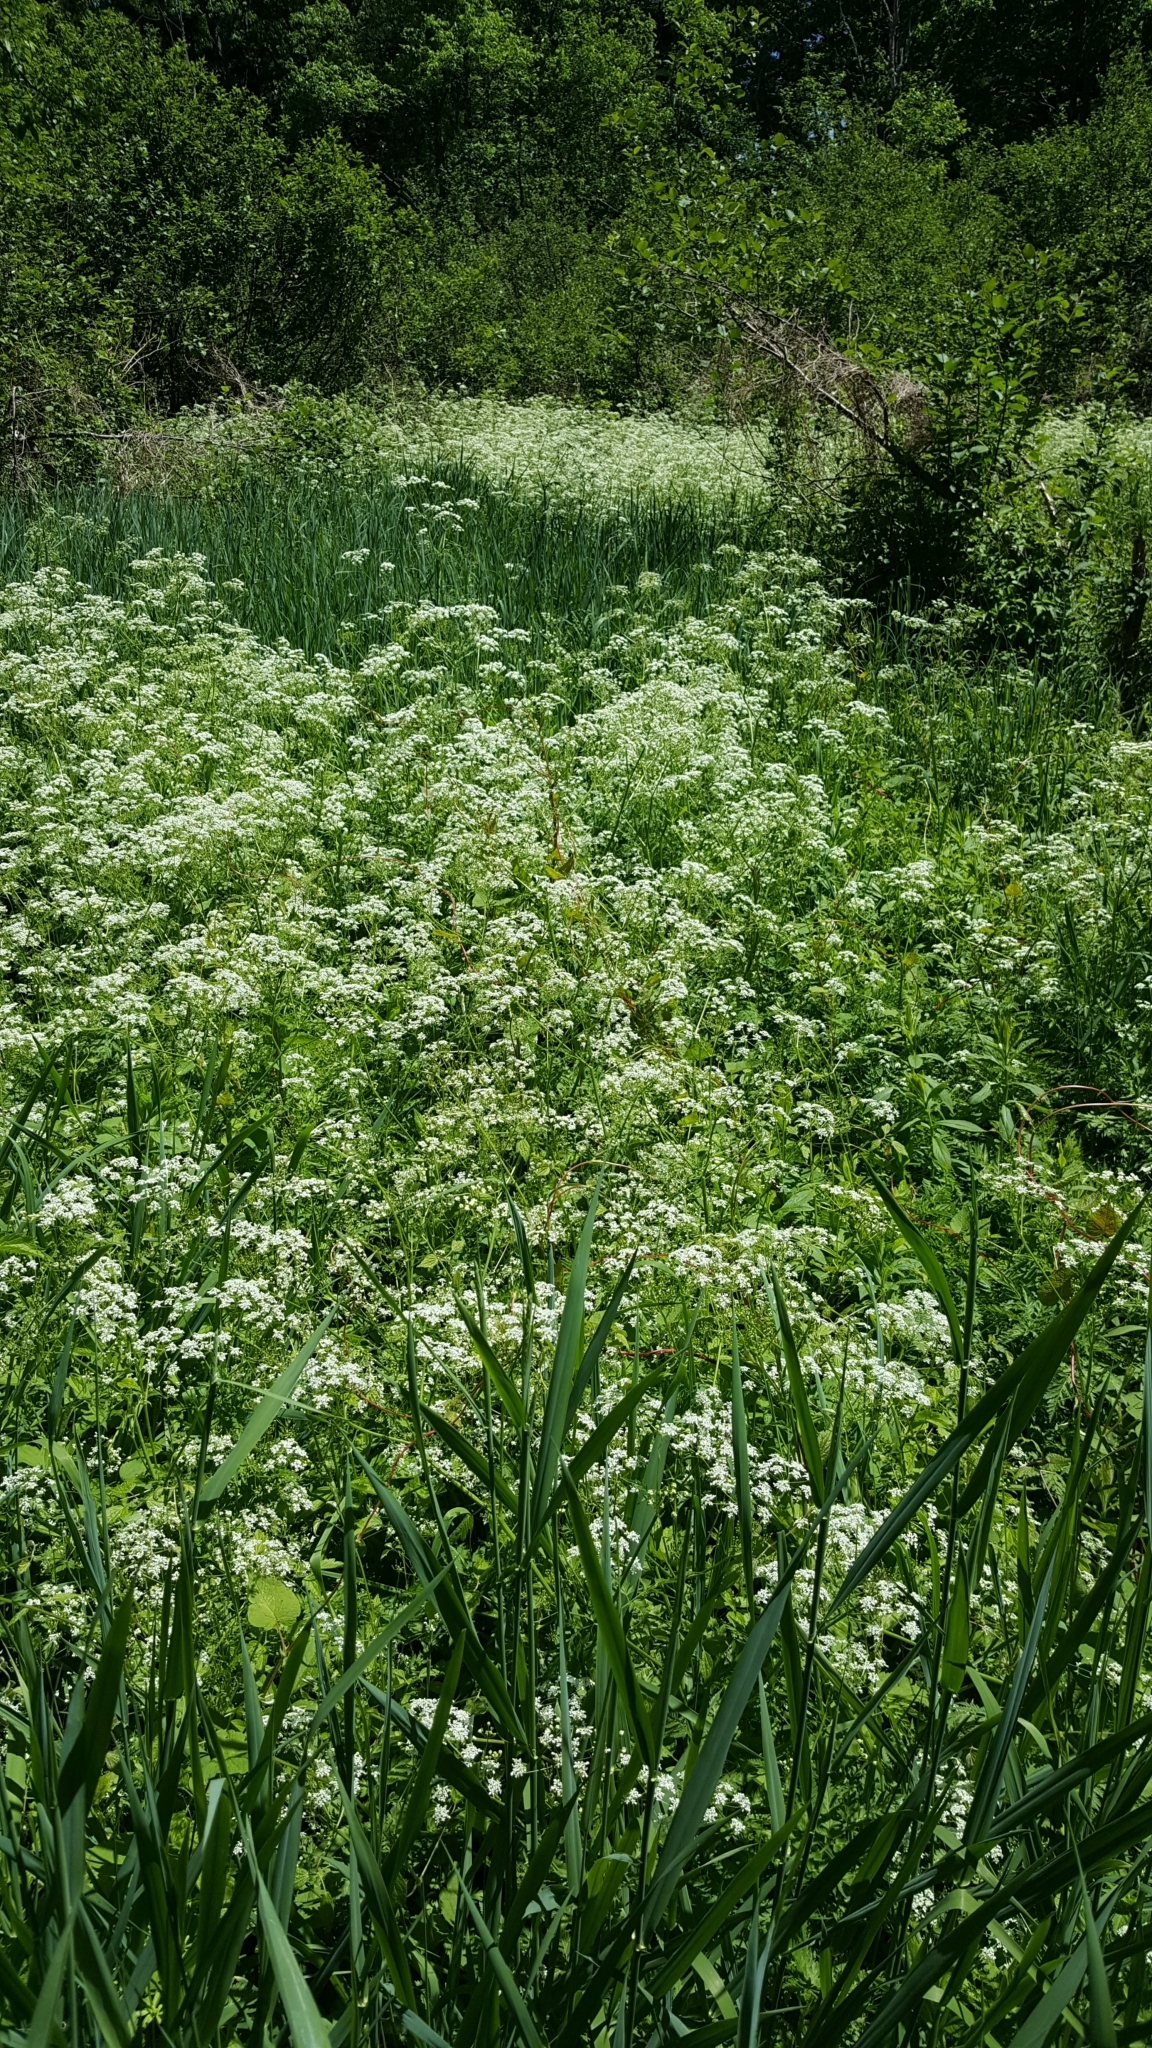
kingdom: Plantae
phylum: Tracheophyta
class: Magnoliopsida
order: Apiales
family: Apiaceae
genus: Anthriscus
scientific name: Anthriscus sylvestris
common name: Cow parsley
